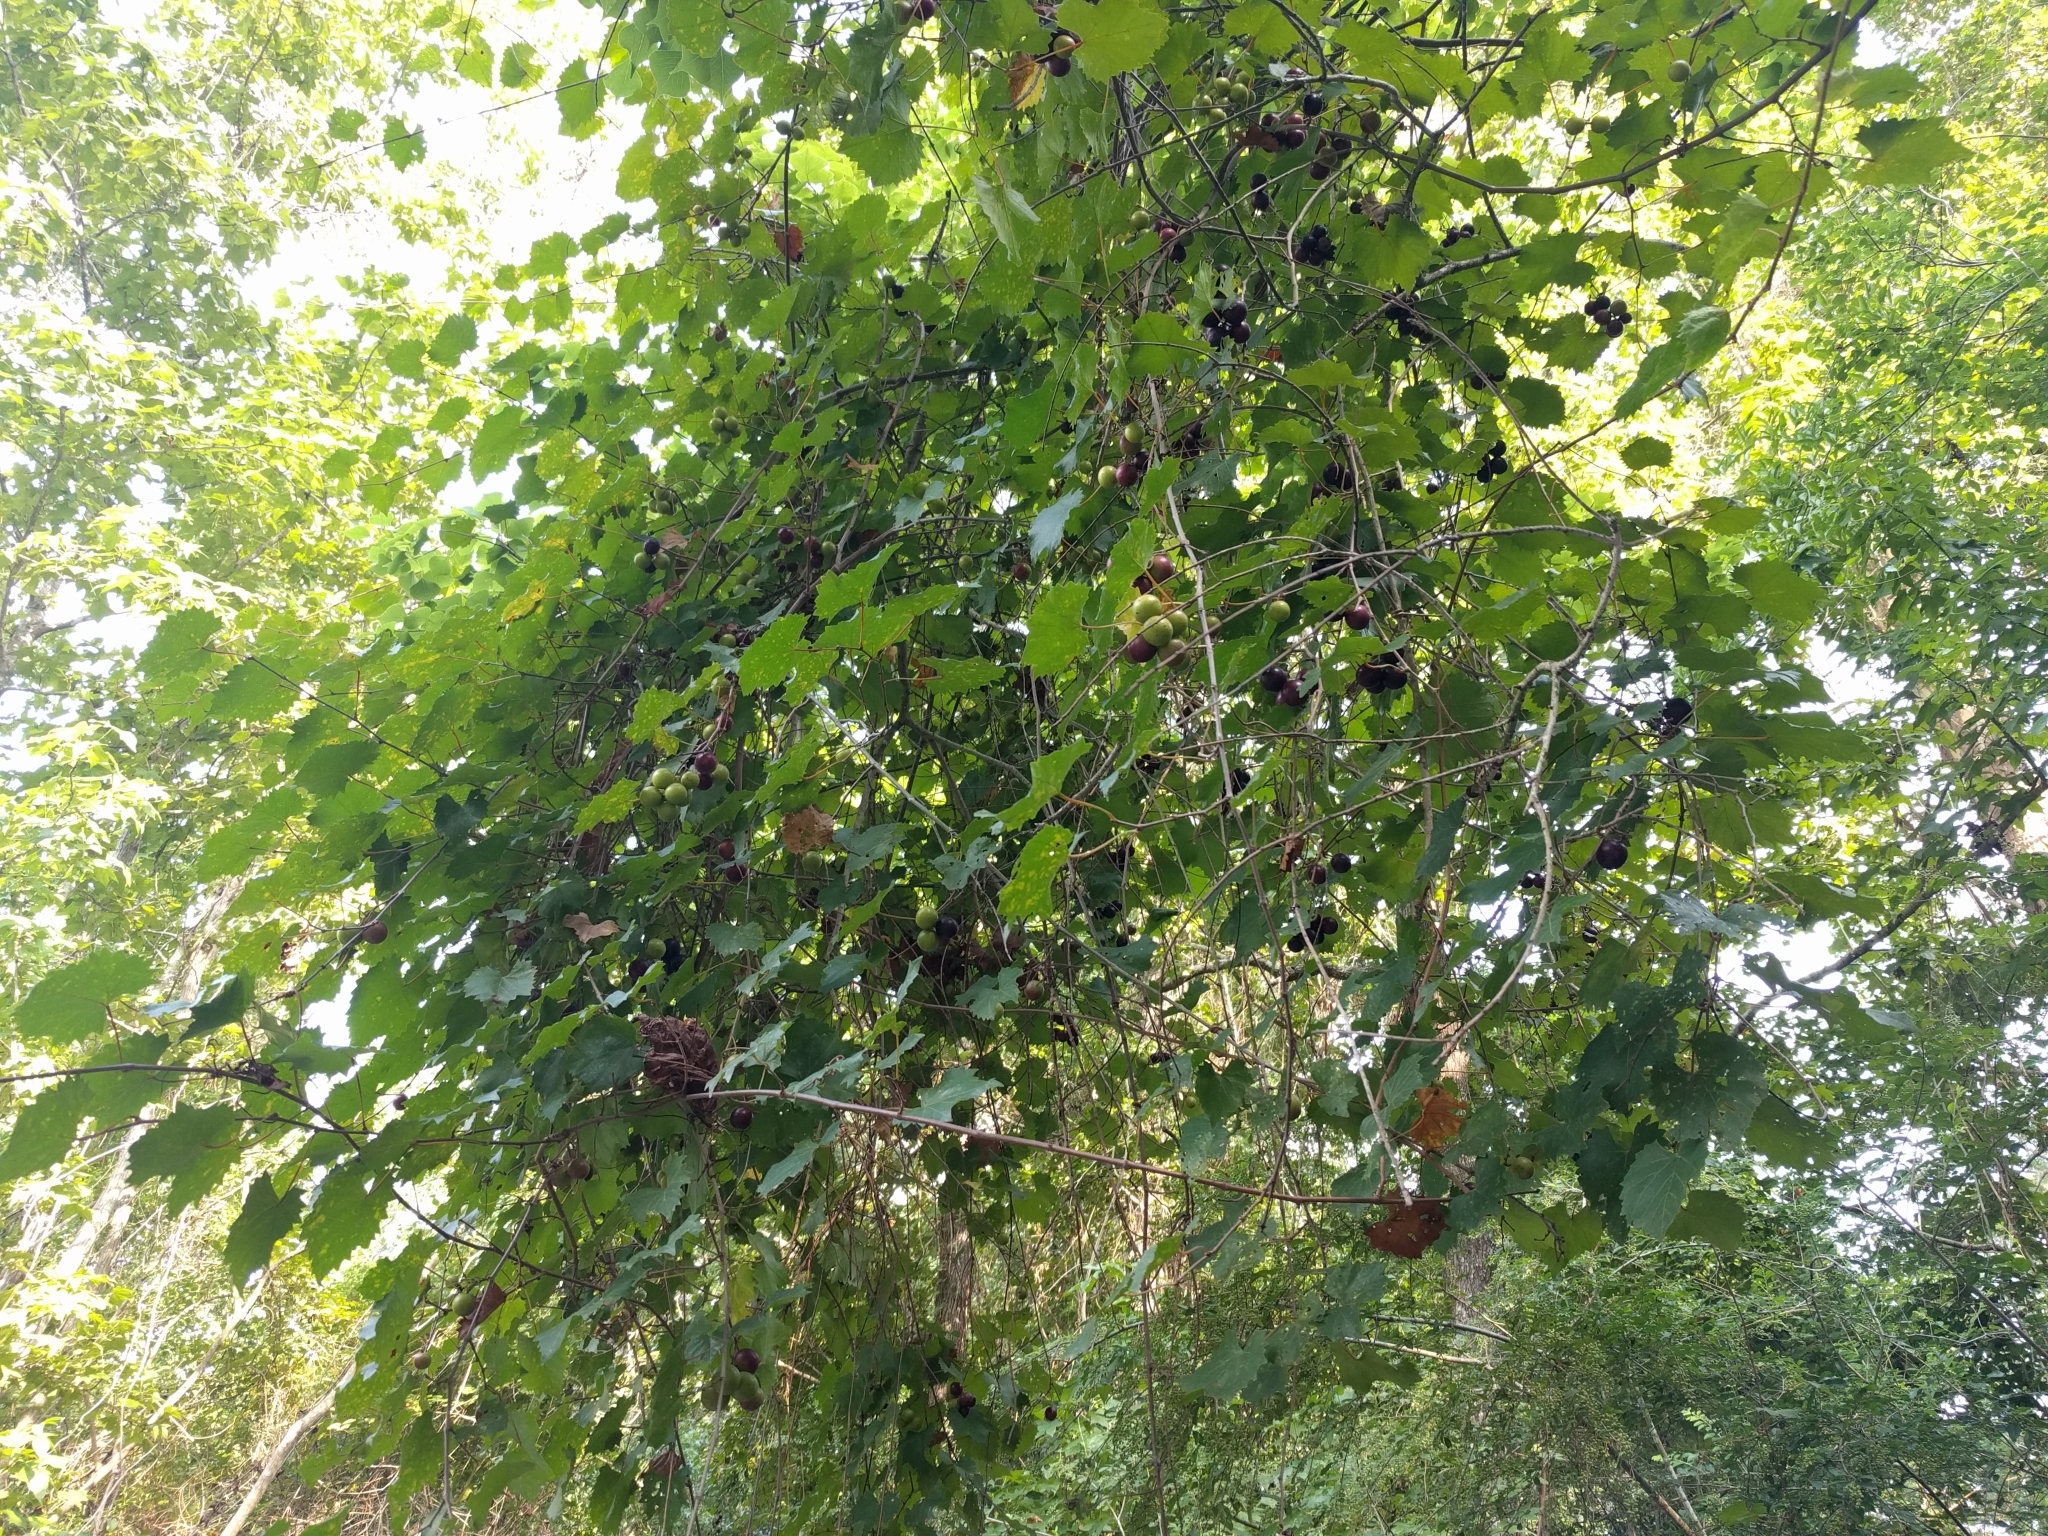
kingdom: Plantae
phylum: Tracheophyta
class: Magnoliopsida
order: Vitales
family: Vitaceae
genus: Vitis
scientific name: Vitis rotundifolia
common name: Muscadine grape
